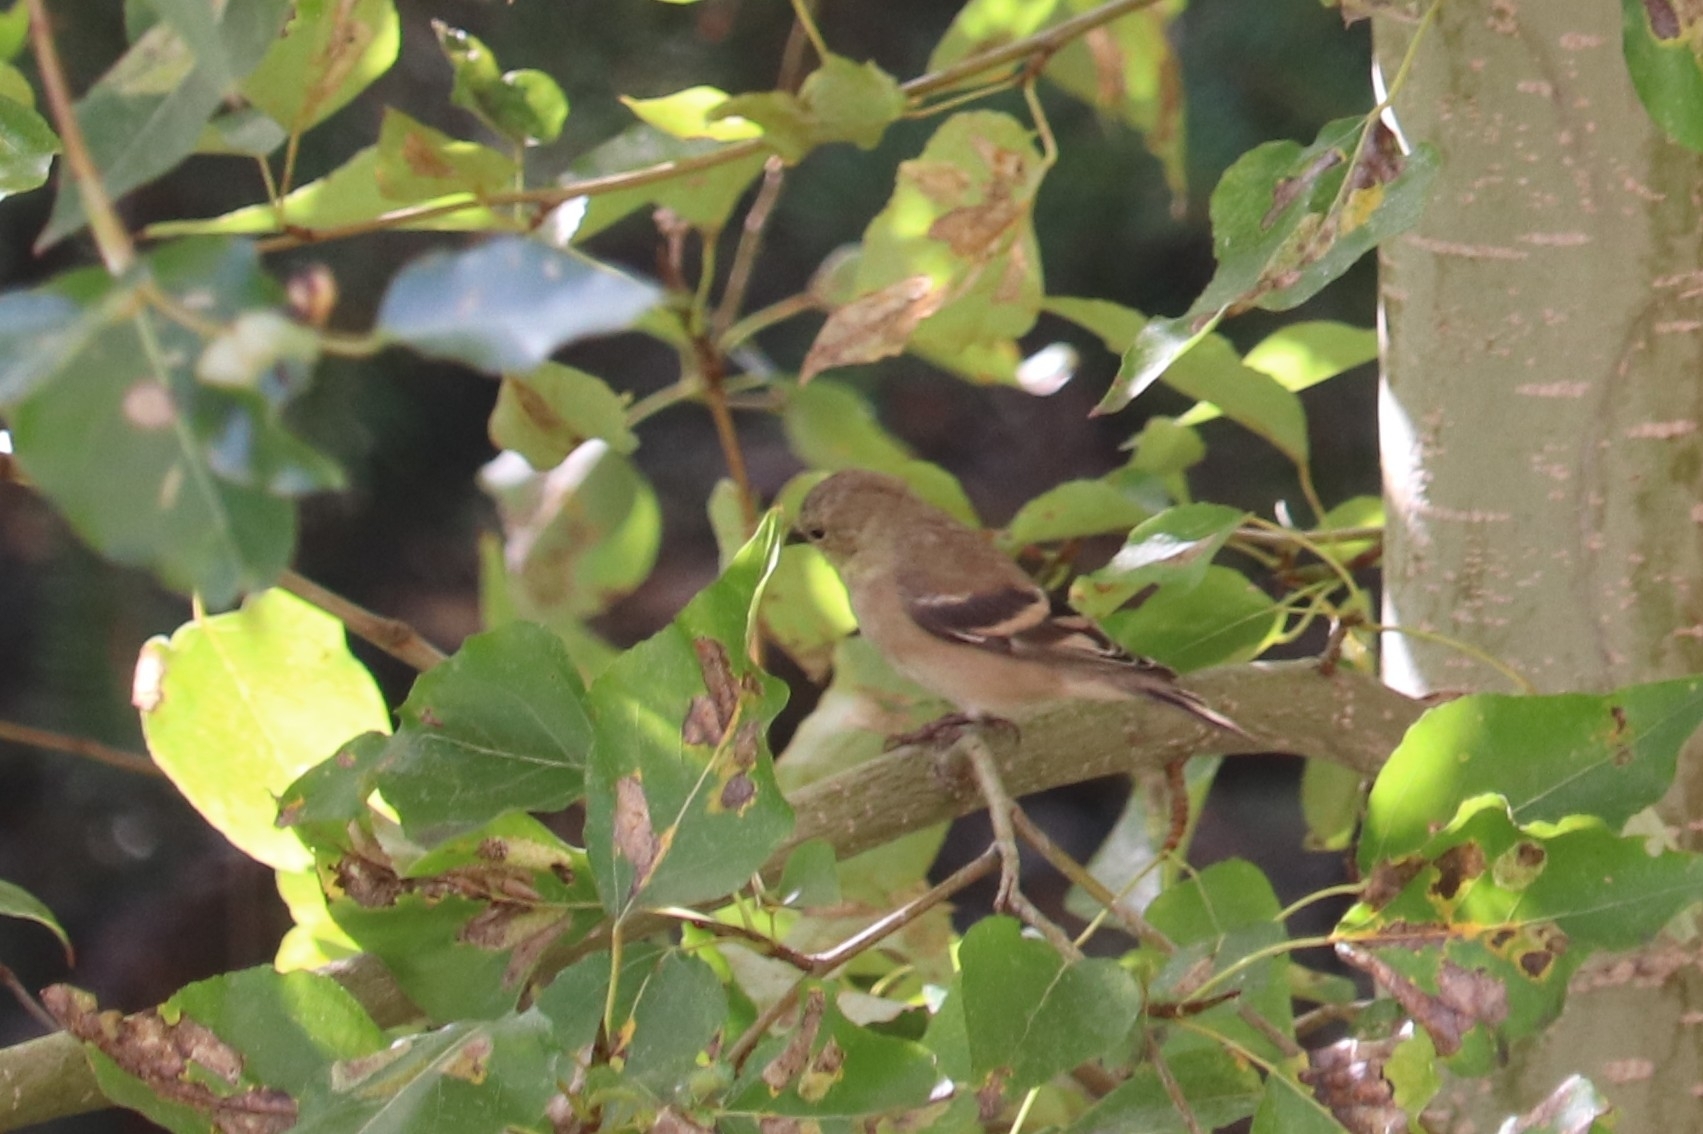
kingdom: Animalia
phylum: Chordata
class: Aves
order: Passeriformes
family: Fringillidae
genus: Spinus
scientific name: Spinus tristis
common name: American goldfinch
